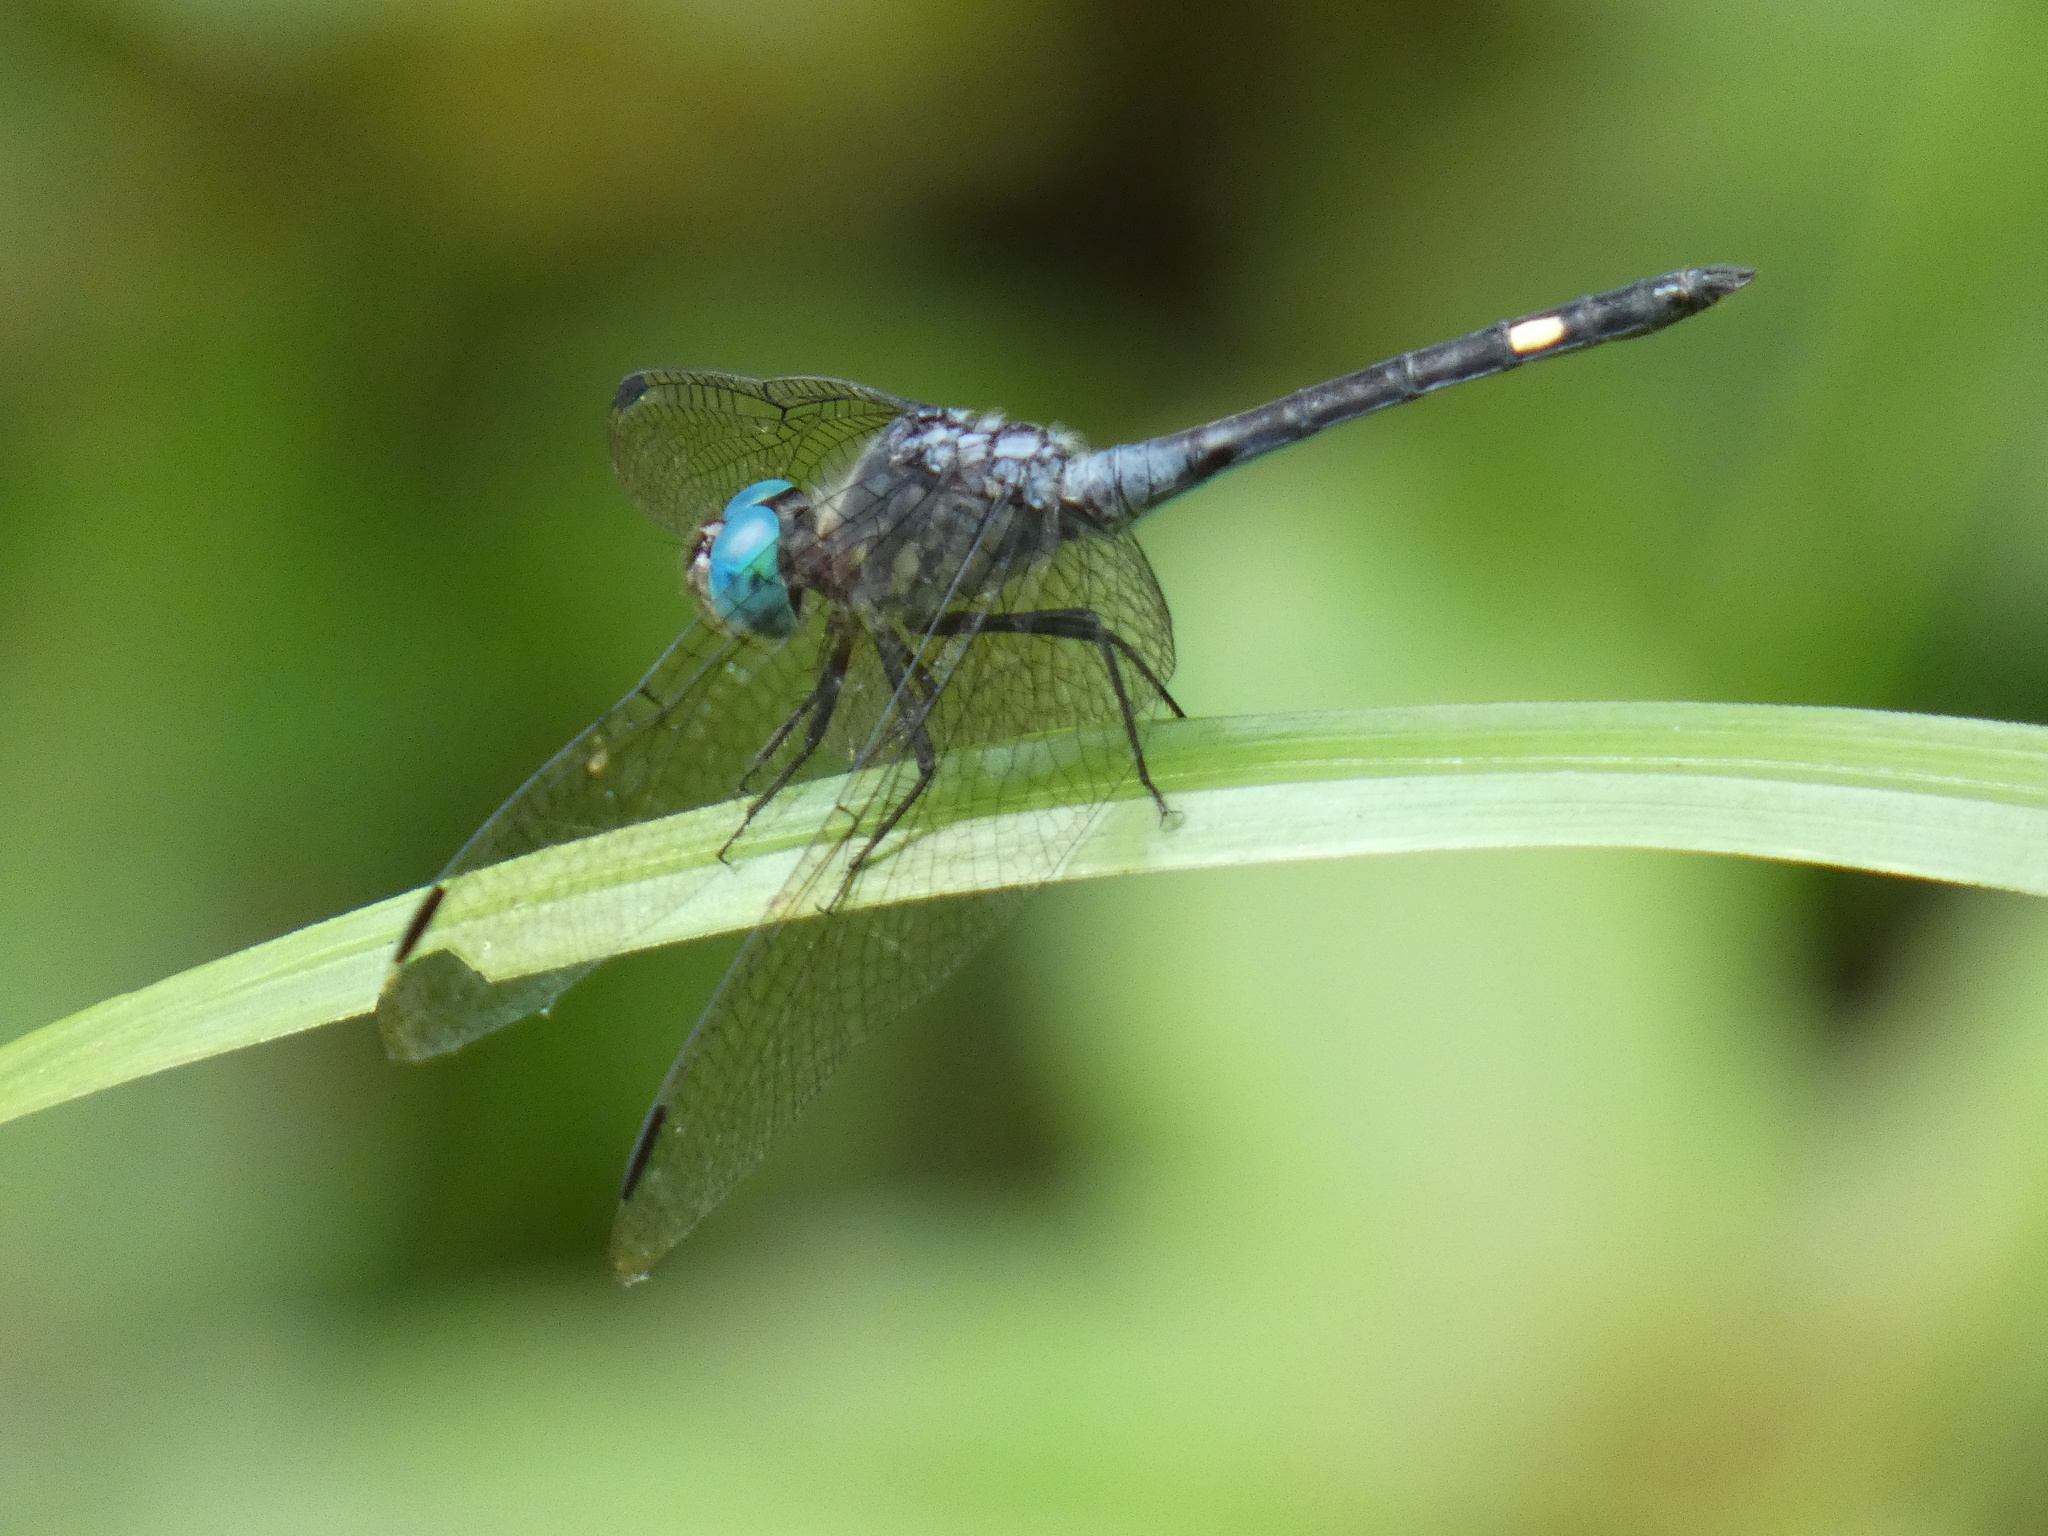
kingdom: Animalia
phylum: Arthropoda
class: Insecta
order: Odonata
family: Libellulidae
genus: Micrathyria
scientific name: Micrathyria atra
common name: Black dasher
